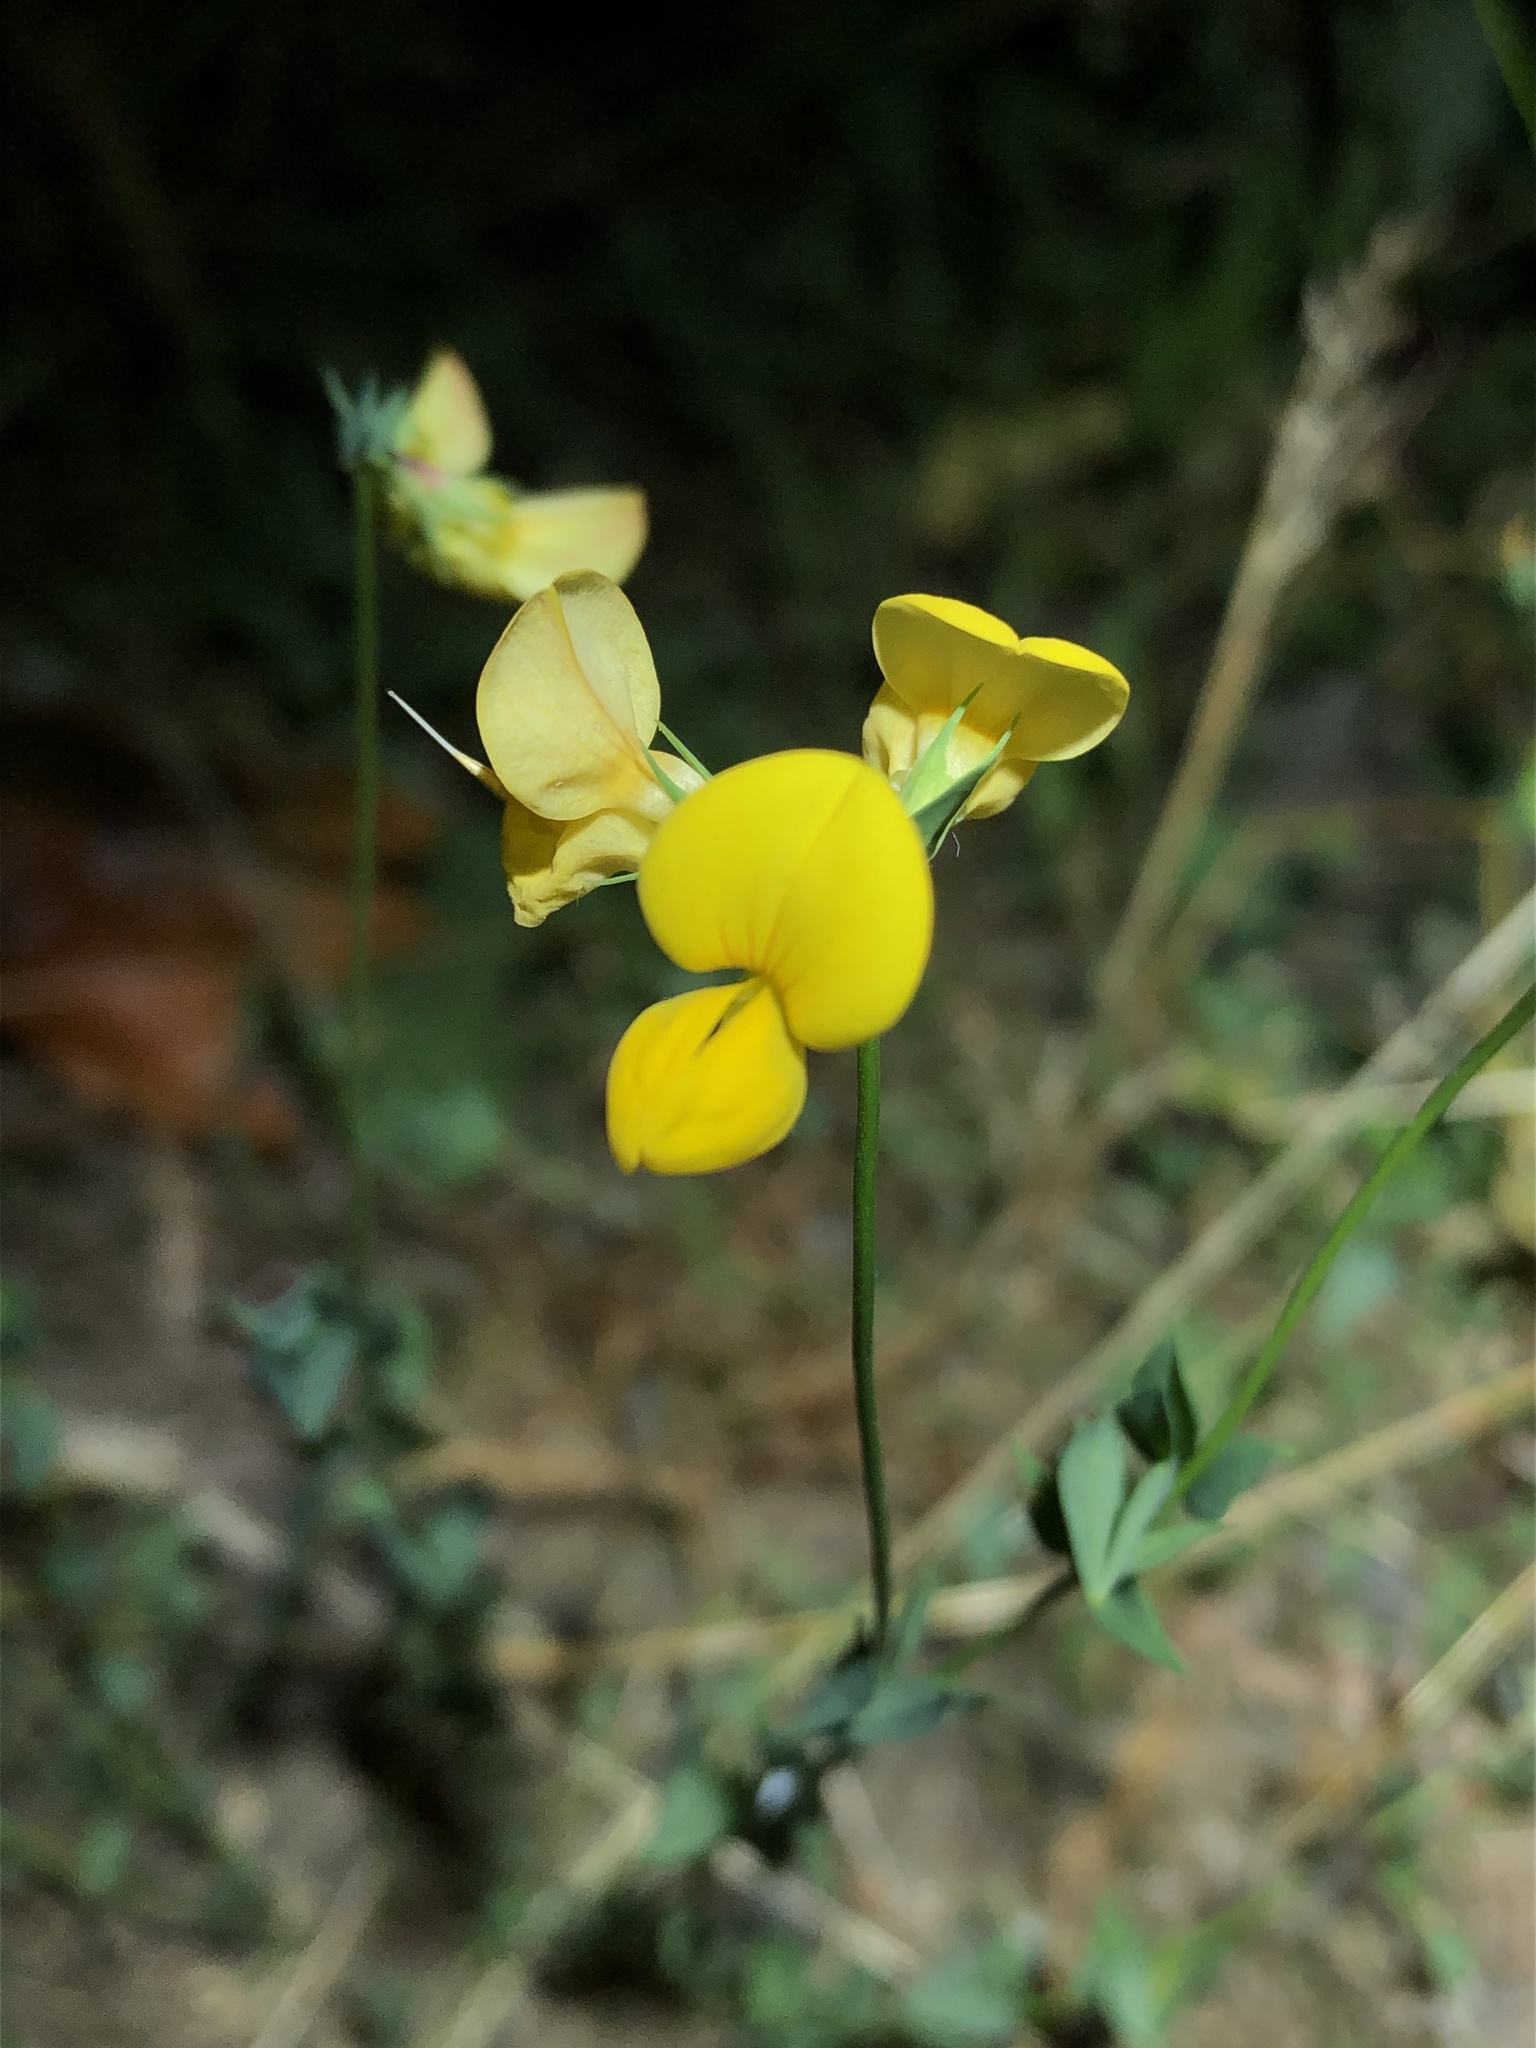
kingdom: Plantae
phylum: Tracheophyta
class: Magnoliopsida
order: Fabales
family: Fabaceae
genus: Lotus
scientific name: Lotus corniculatus
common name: Common bird's-foot-trefoil
